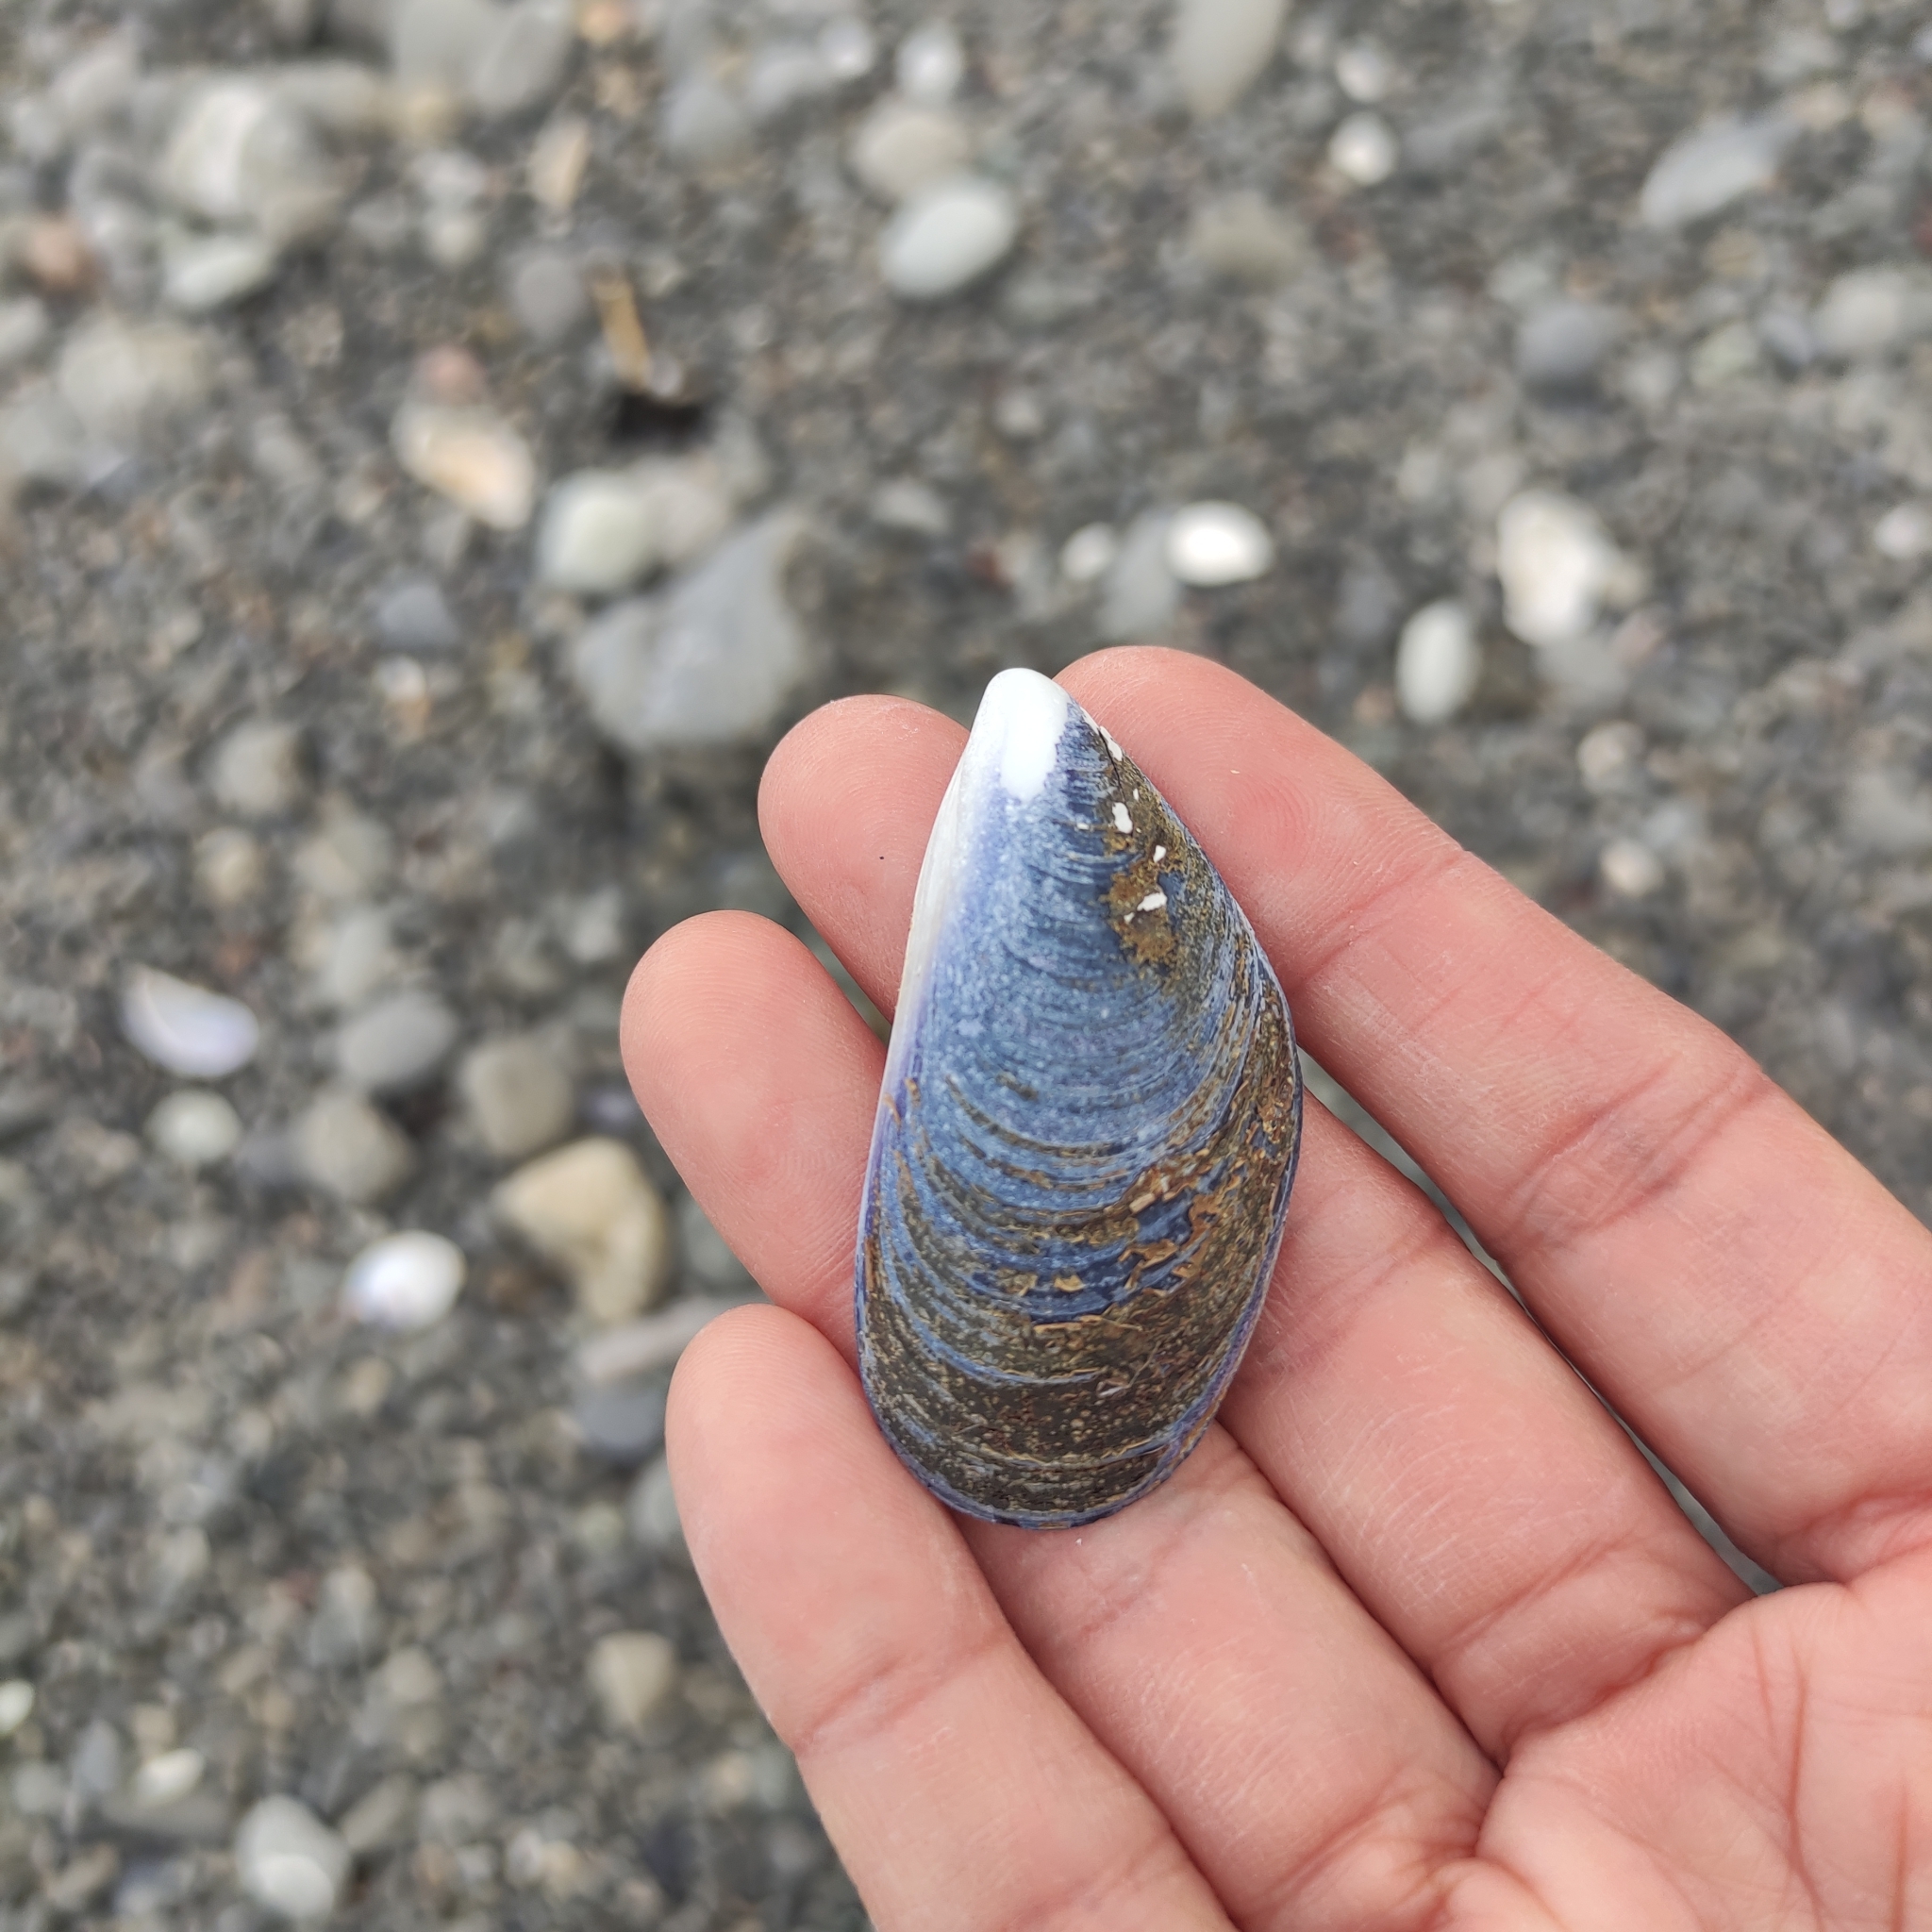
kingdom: Animalia
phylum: Mollusca
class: Bivalvia
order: Mytilida
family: Mytilidae
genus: Mytilus
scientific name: Mytilus planulatus
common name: Australian mussel
